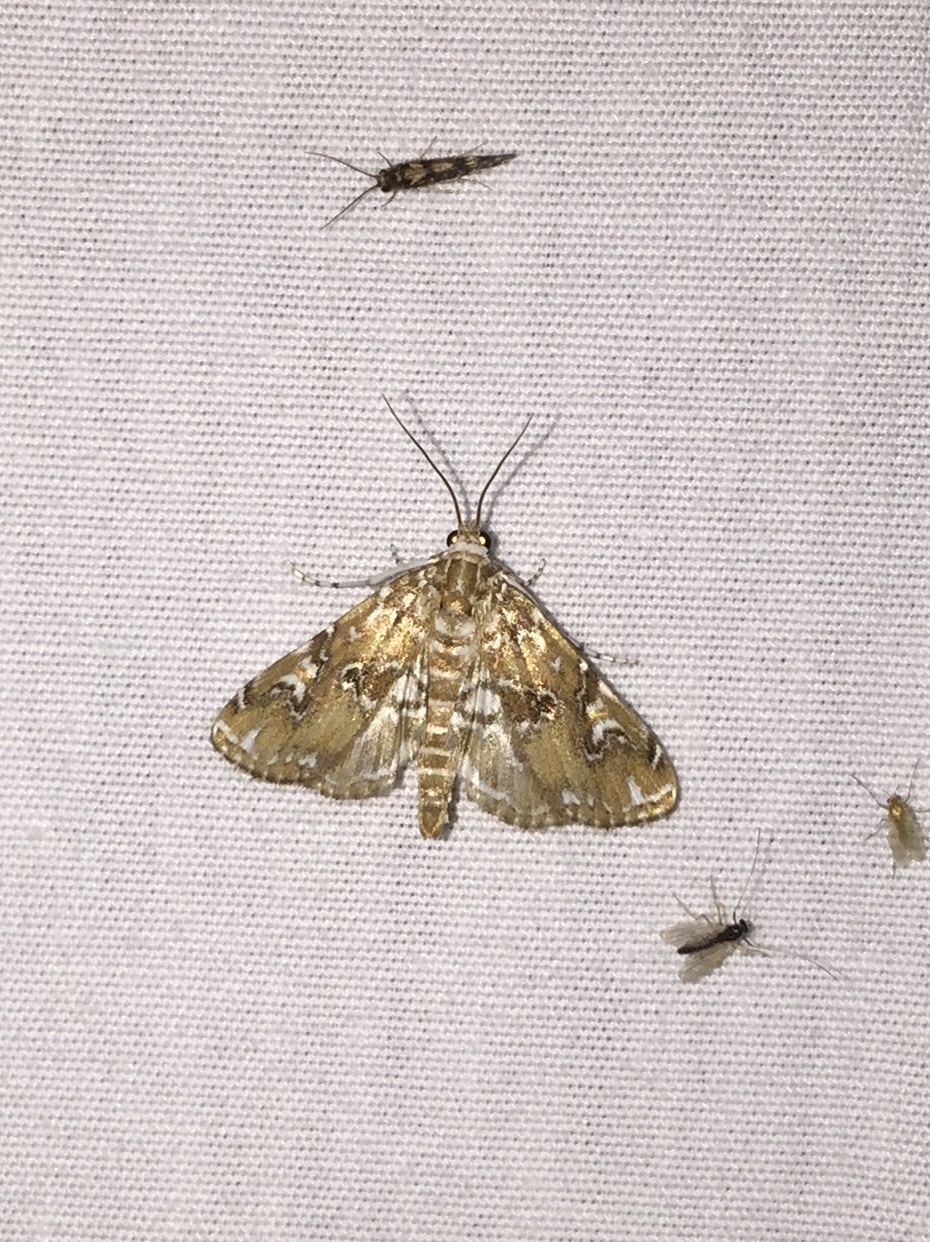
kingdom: Animalia
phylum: Arthropoda
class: Insecta
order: Lepidoptera
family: Crambidae
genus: Elophila
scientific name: Elophila gyralis
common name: Waterlily borer moth
